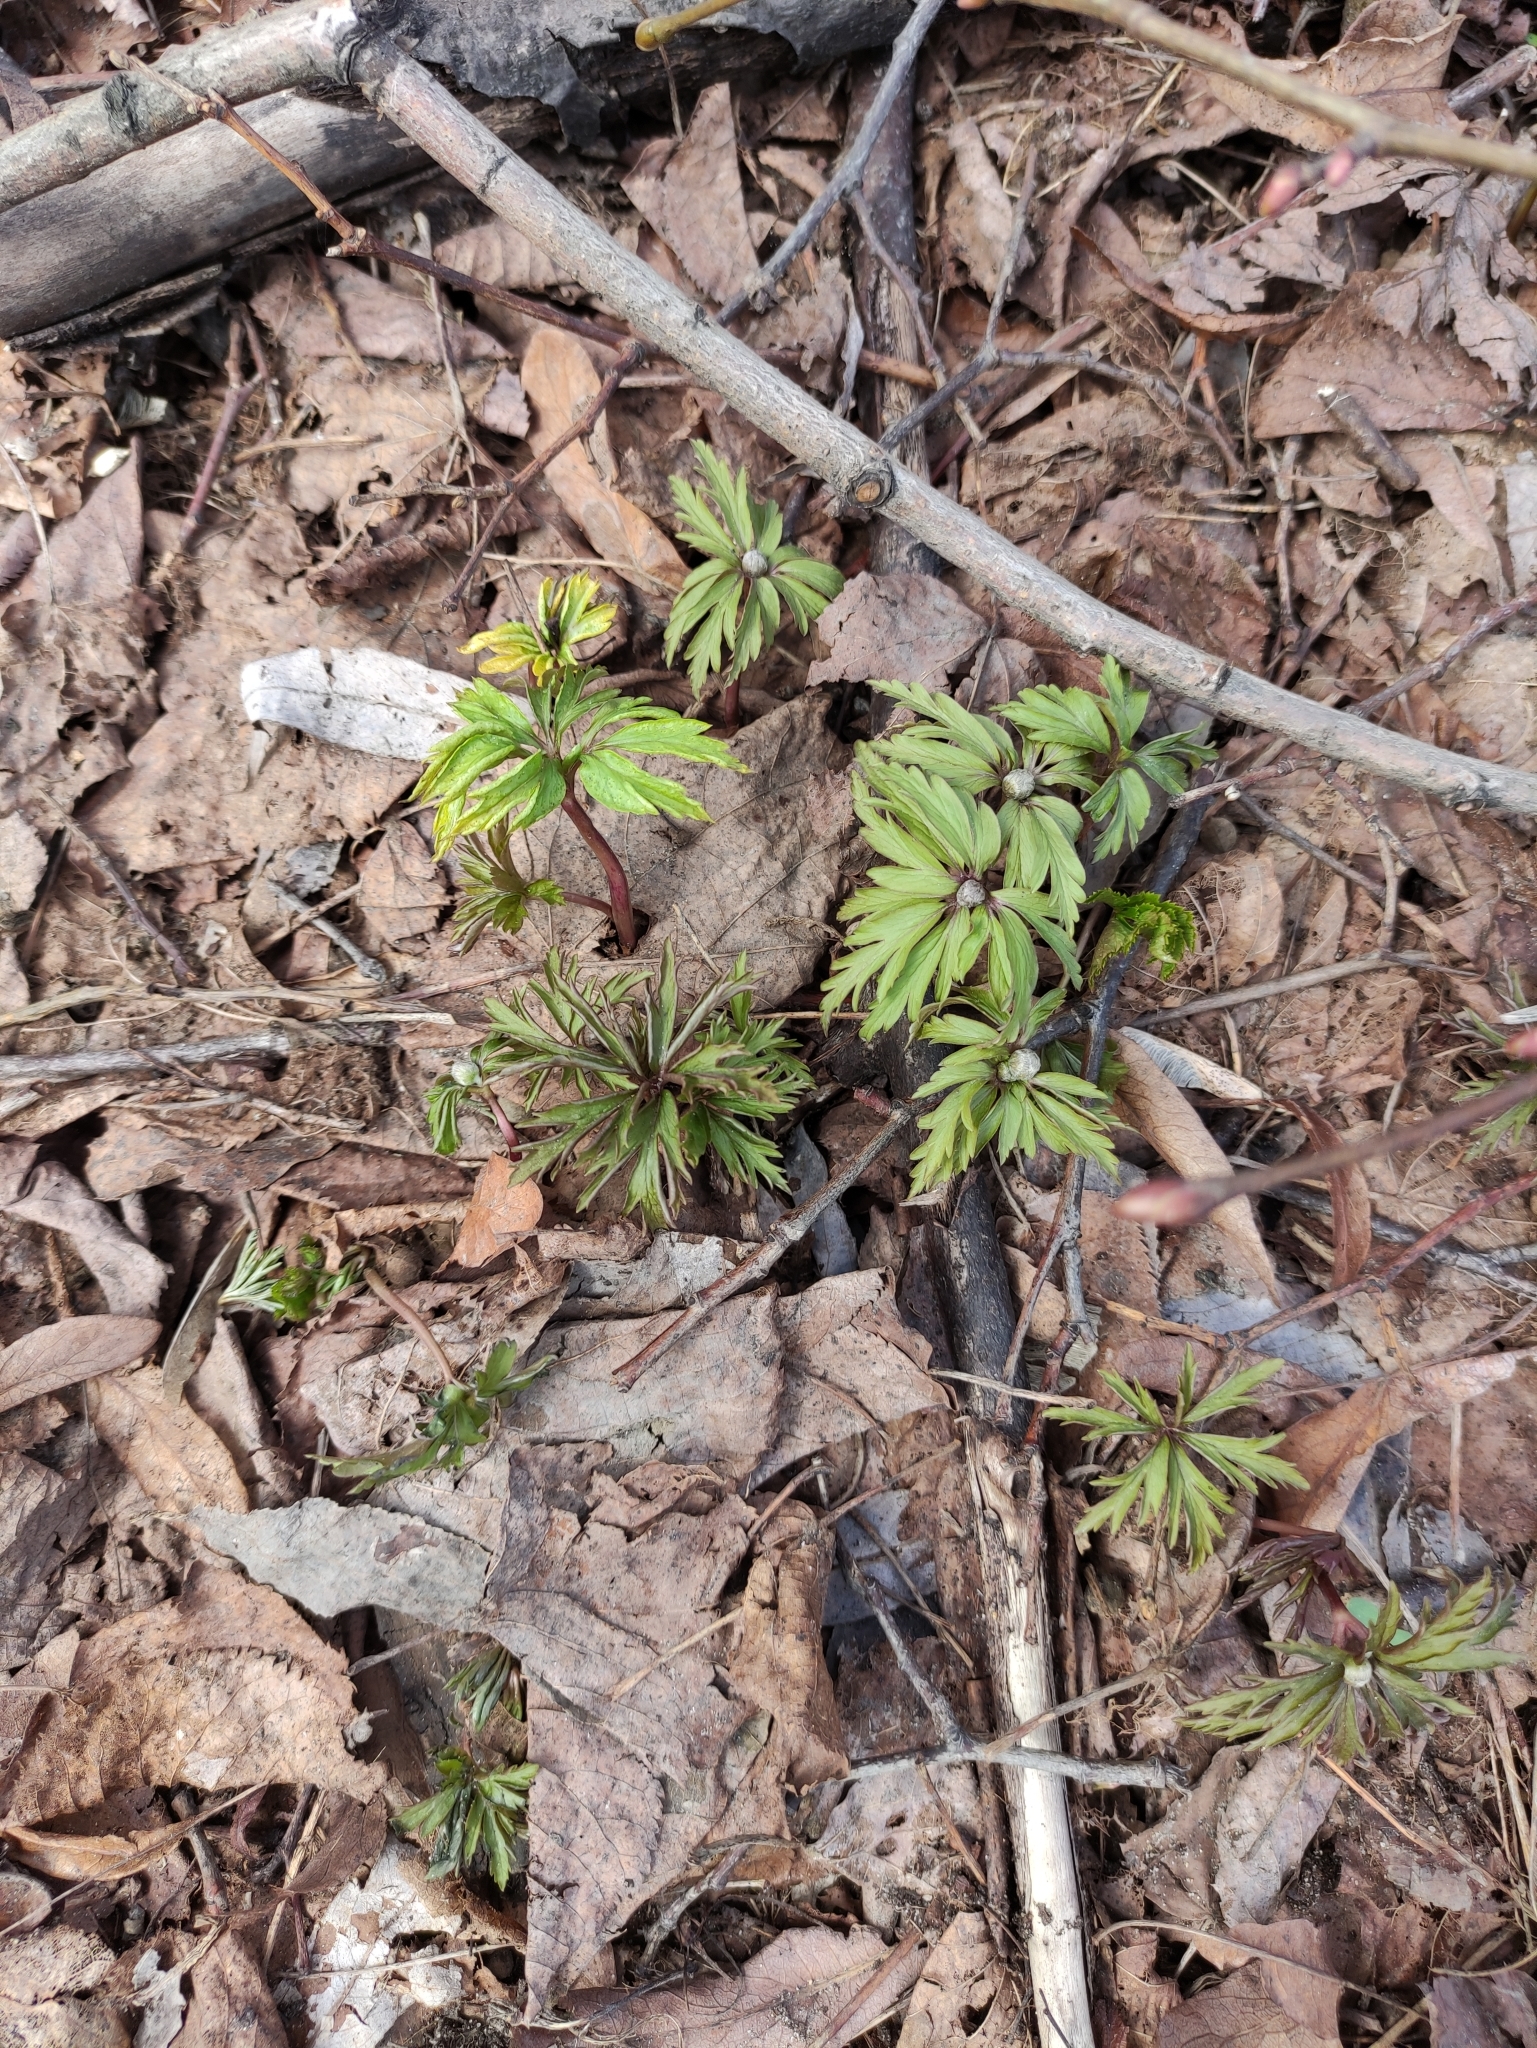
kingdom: Plantae
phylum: Tracheophyta
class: Magnoliopsida
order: Ranunculales
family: Ranunculaceae
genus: Anemone
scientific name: Anemone ranunculoides
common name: Yellow anemone
